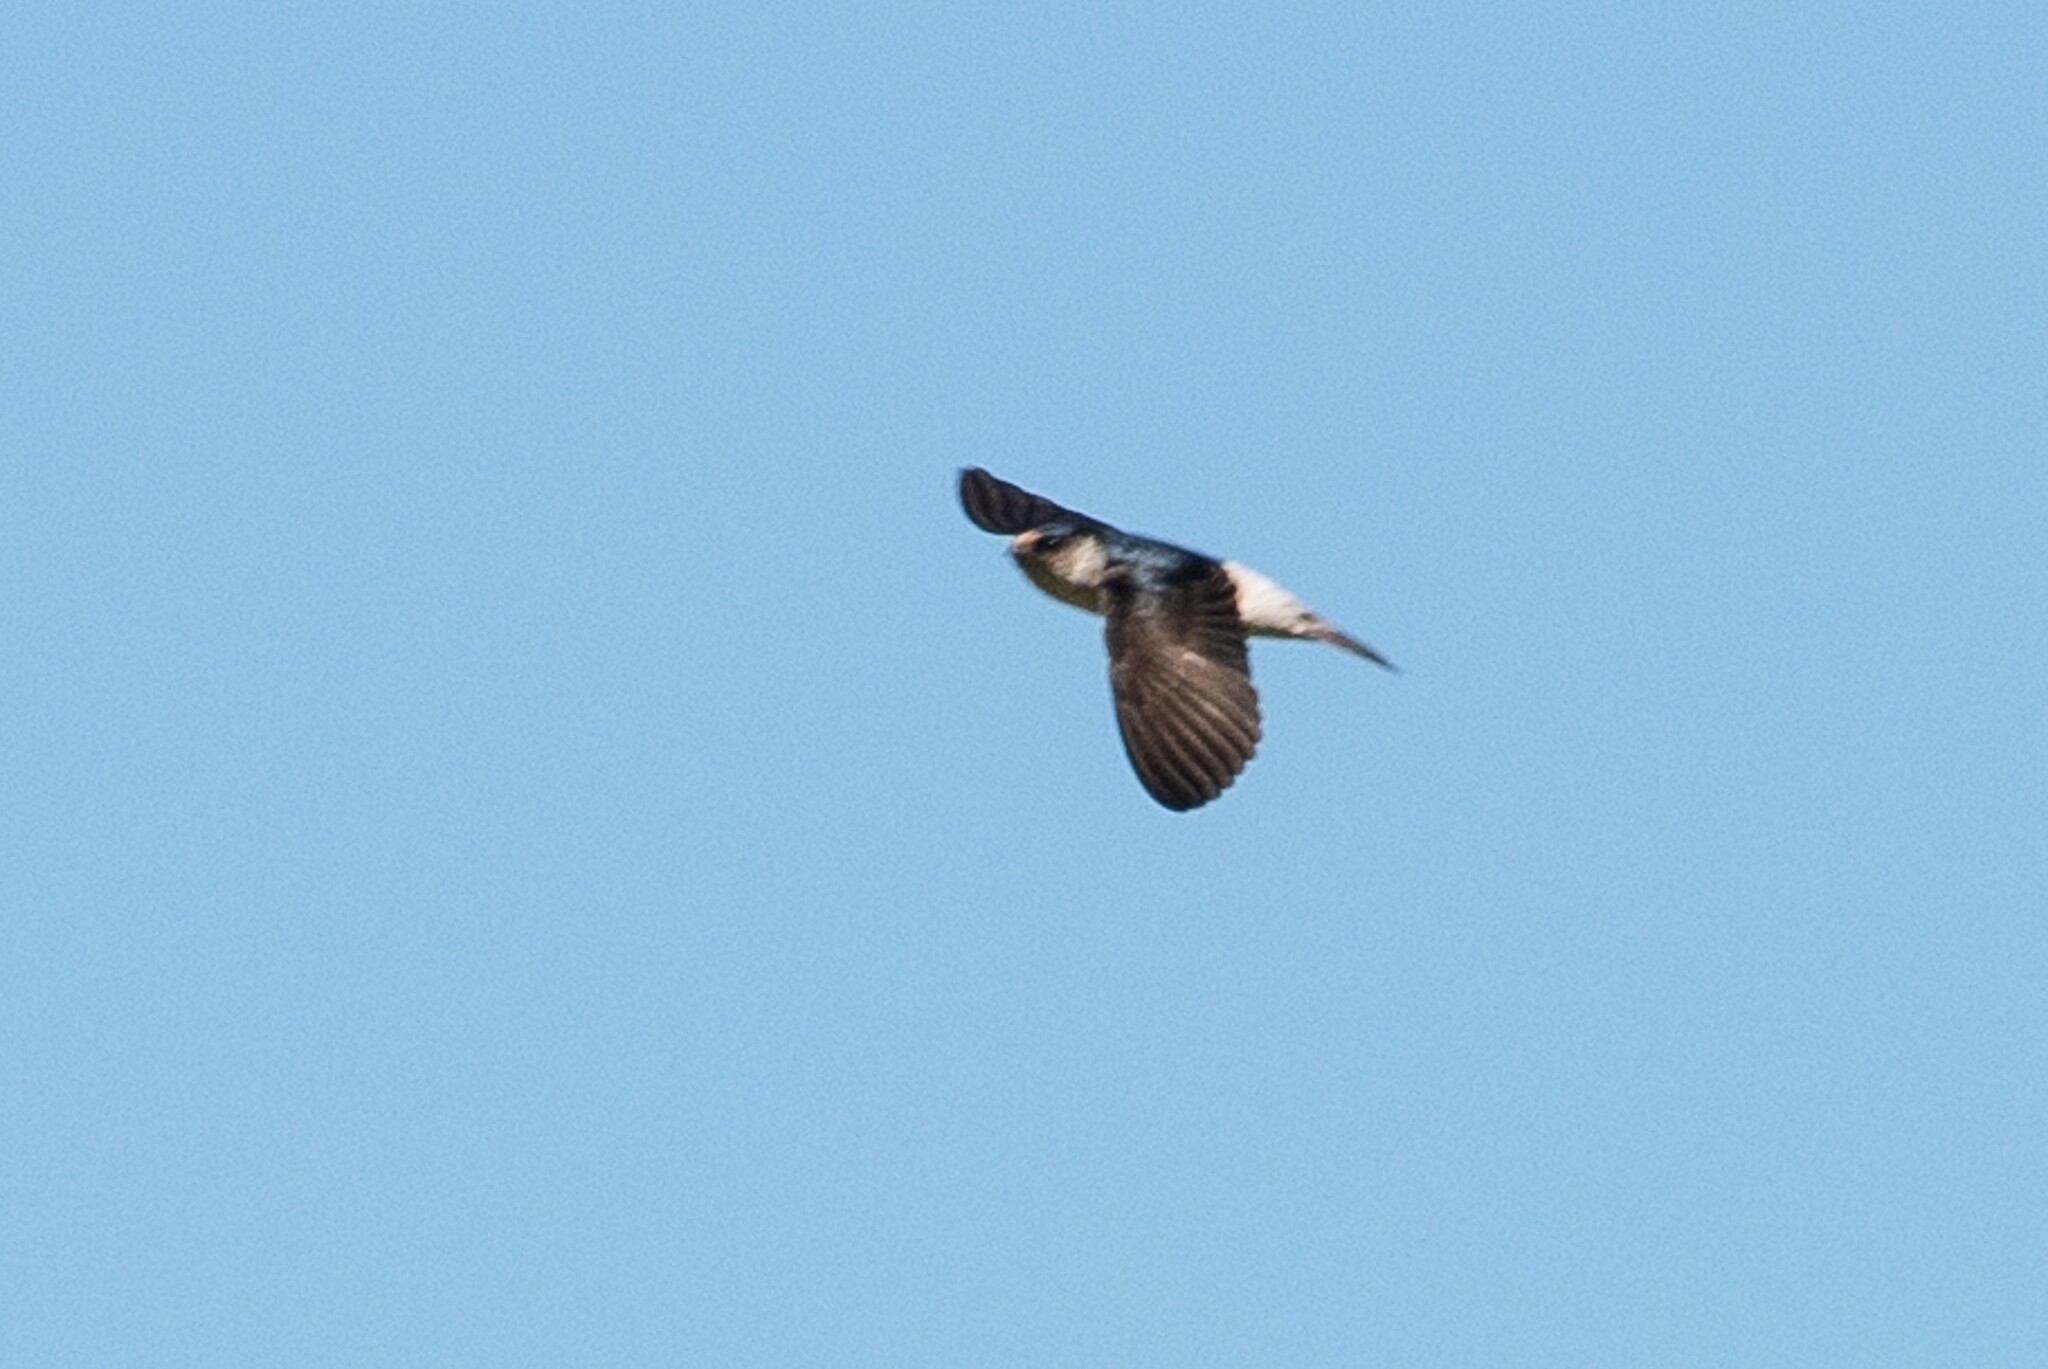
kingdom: Animalia
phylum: Chordata
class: Aves
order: Passeriformes
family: Hirundinidae
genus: Petrochelidon
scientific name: Petrochelidon nigricans
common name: Tree martin
